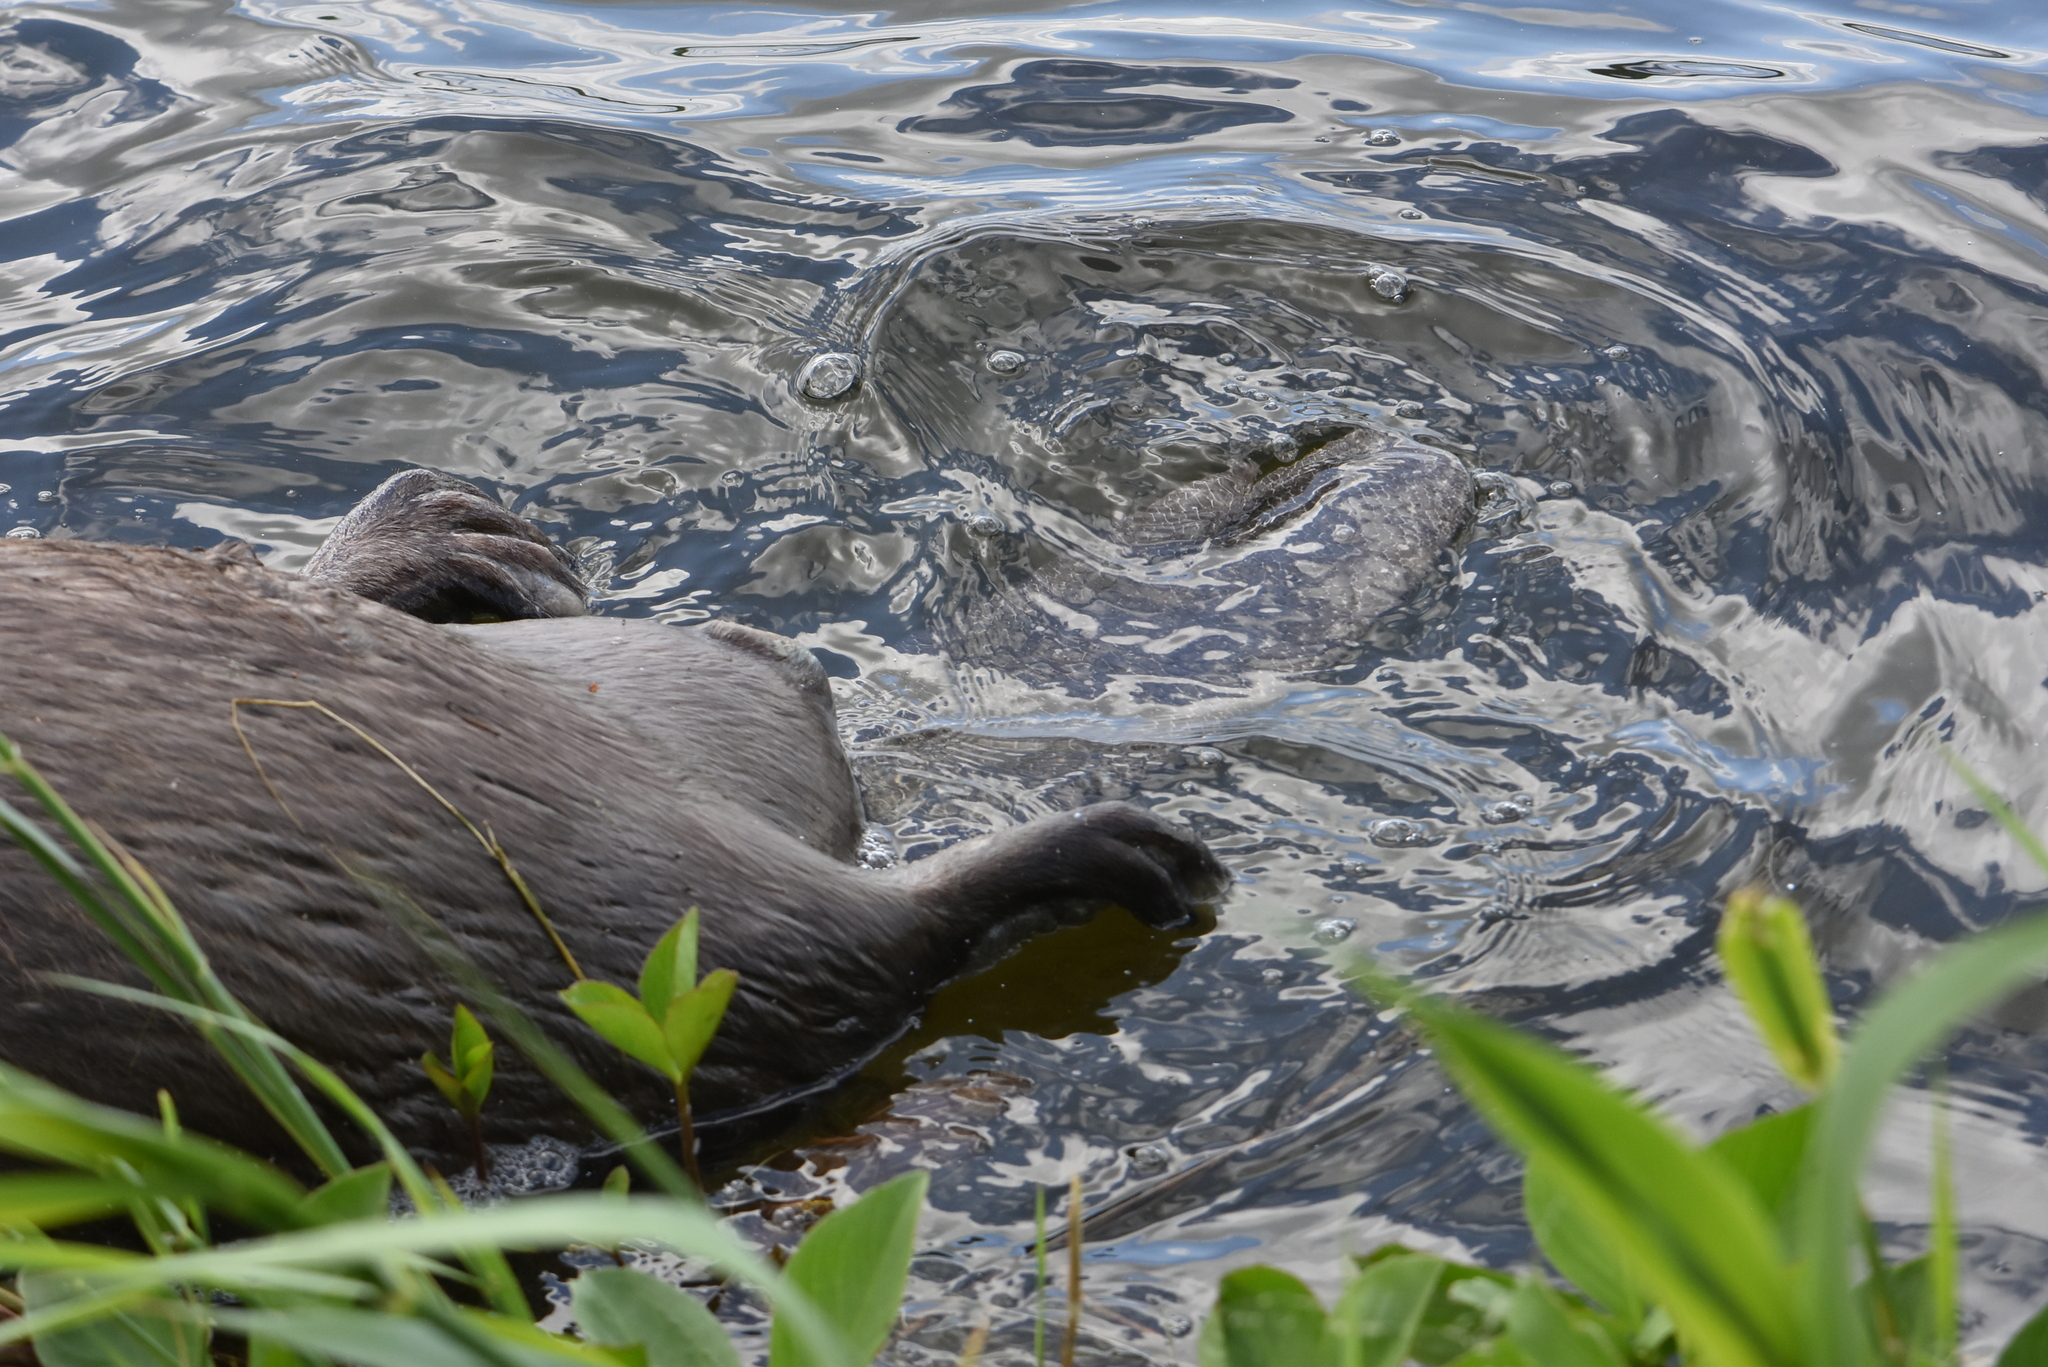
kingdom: Animalia
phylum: Chordata
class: Mammalia
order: Rodentia
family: Castoridae
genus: Castor
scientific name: Castor fiber
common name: Eurasian beaver
